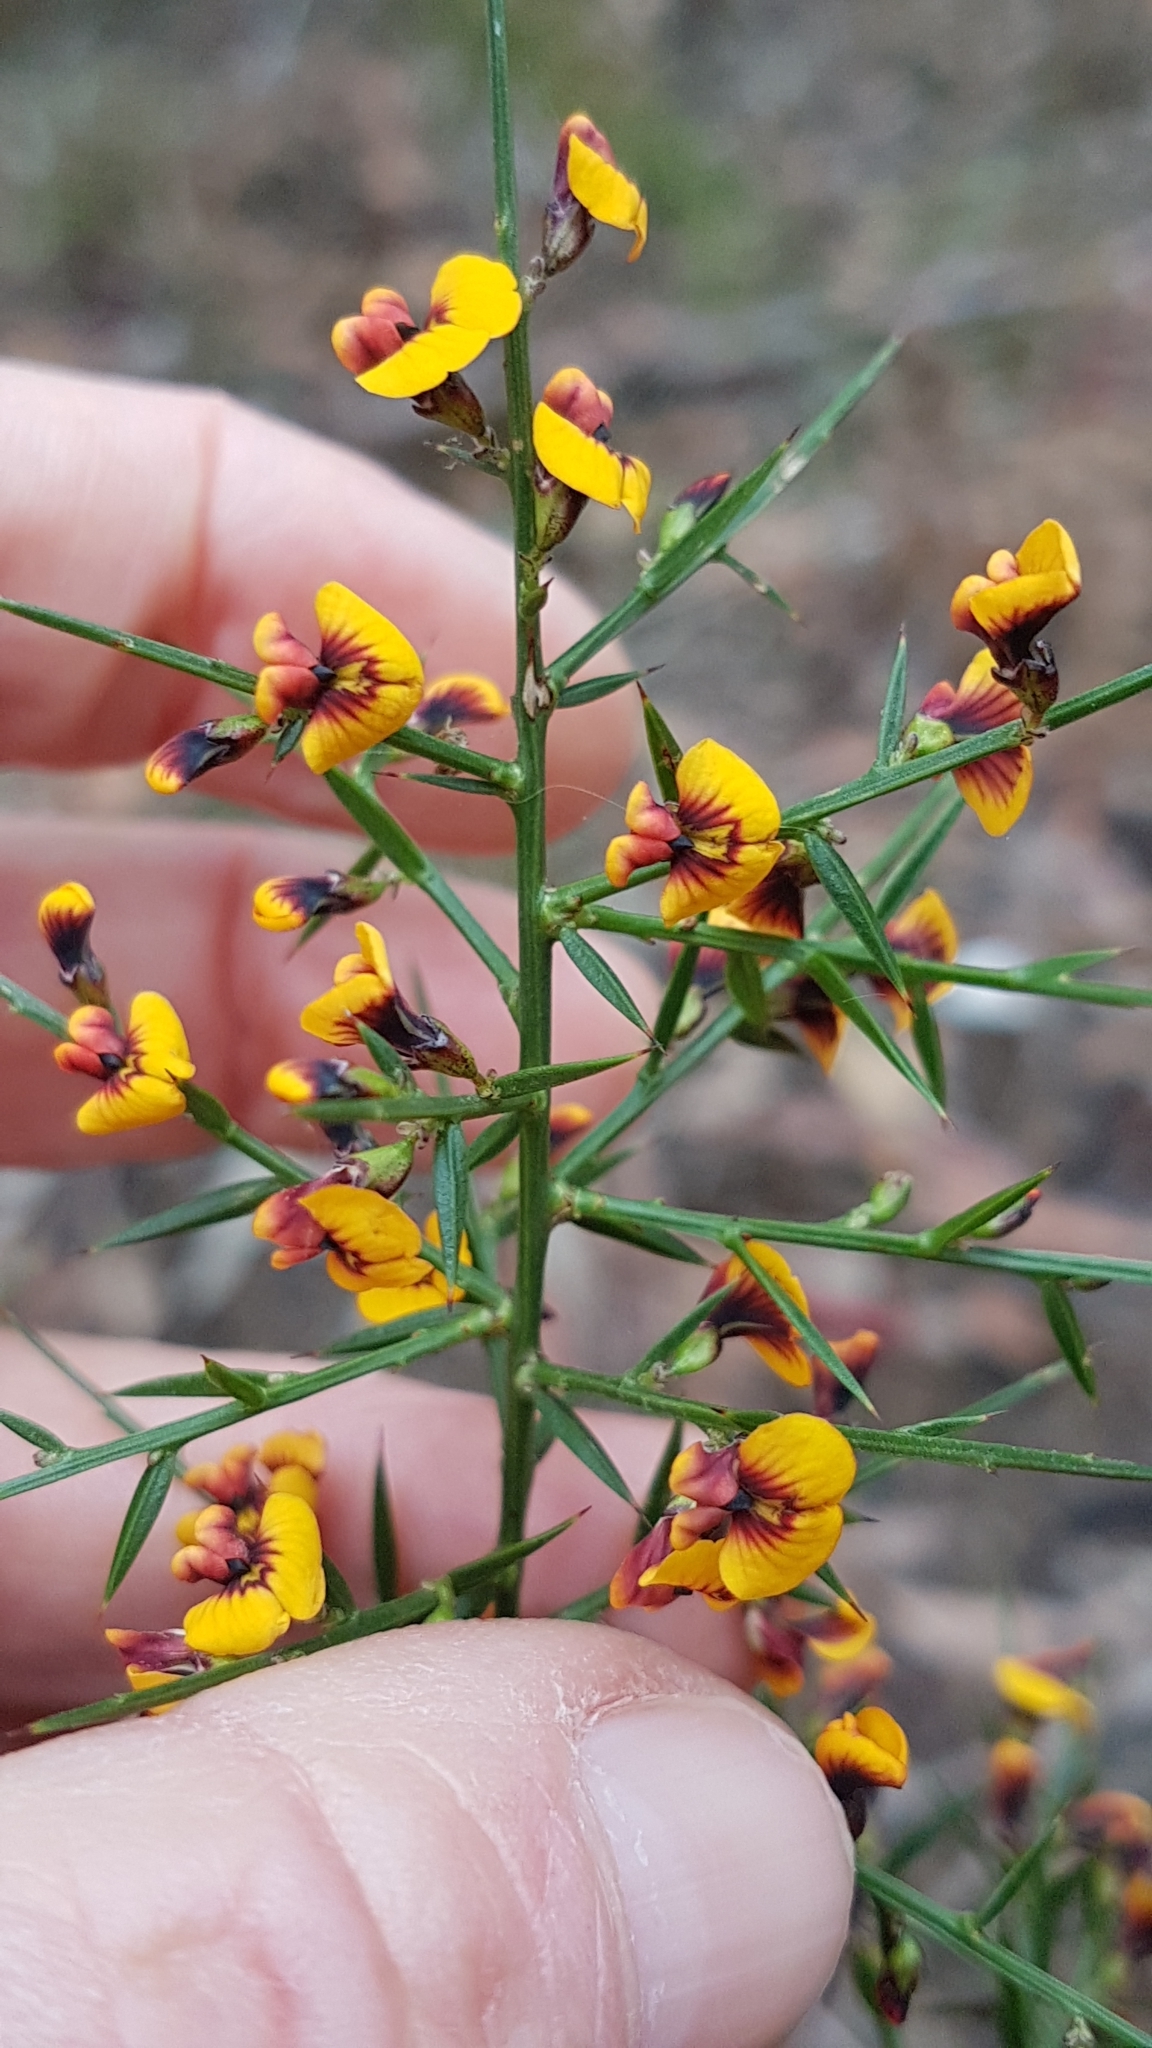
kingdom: Plantae
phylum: Tracheophyta
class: Magnoliopsida
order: Fabales
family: Fabaceae
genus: Daviesia
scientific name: Daviesia ulicifolia
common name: Gorse bitter-pea
